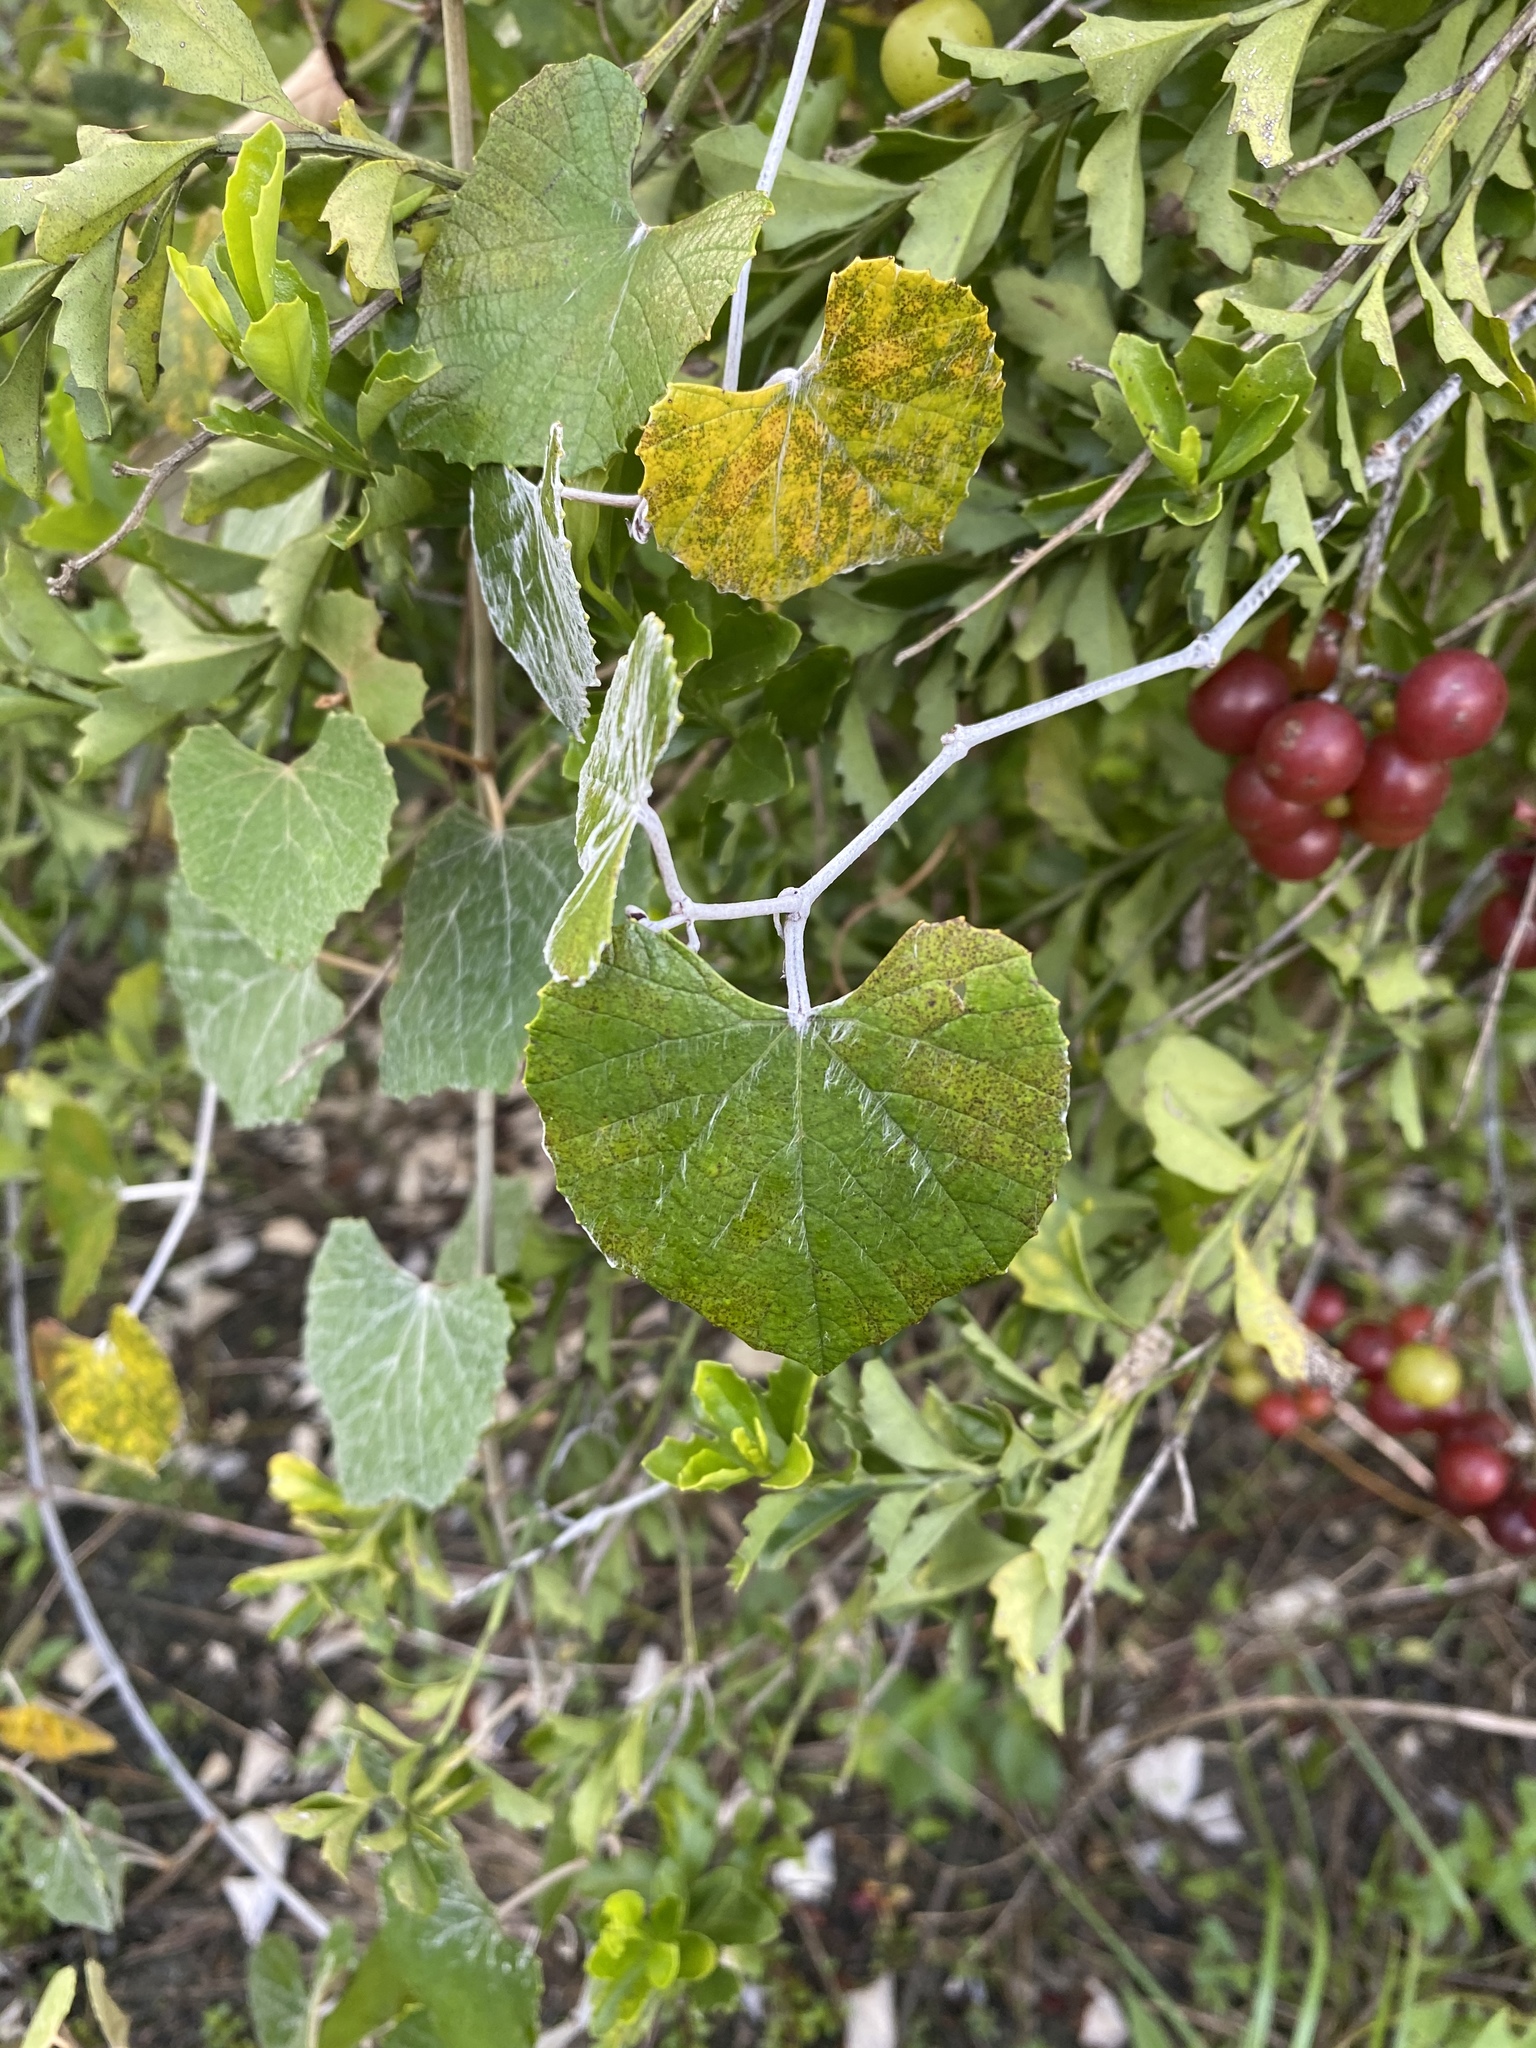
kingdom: Plantae
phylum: Tracheophyta
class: Magnoliopsida
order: Vitales
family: Vitaceae
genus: Vitis
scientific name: Vitis shuttleworthii
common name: Caloosa grape
